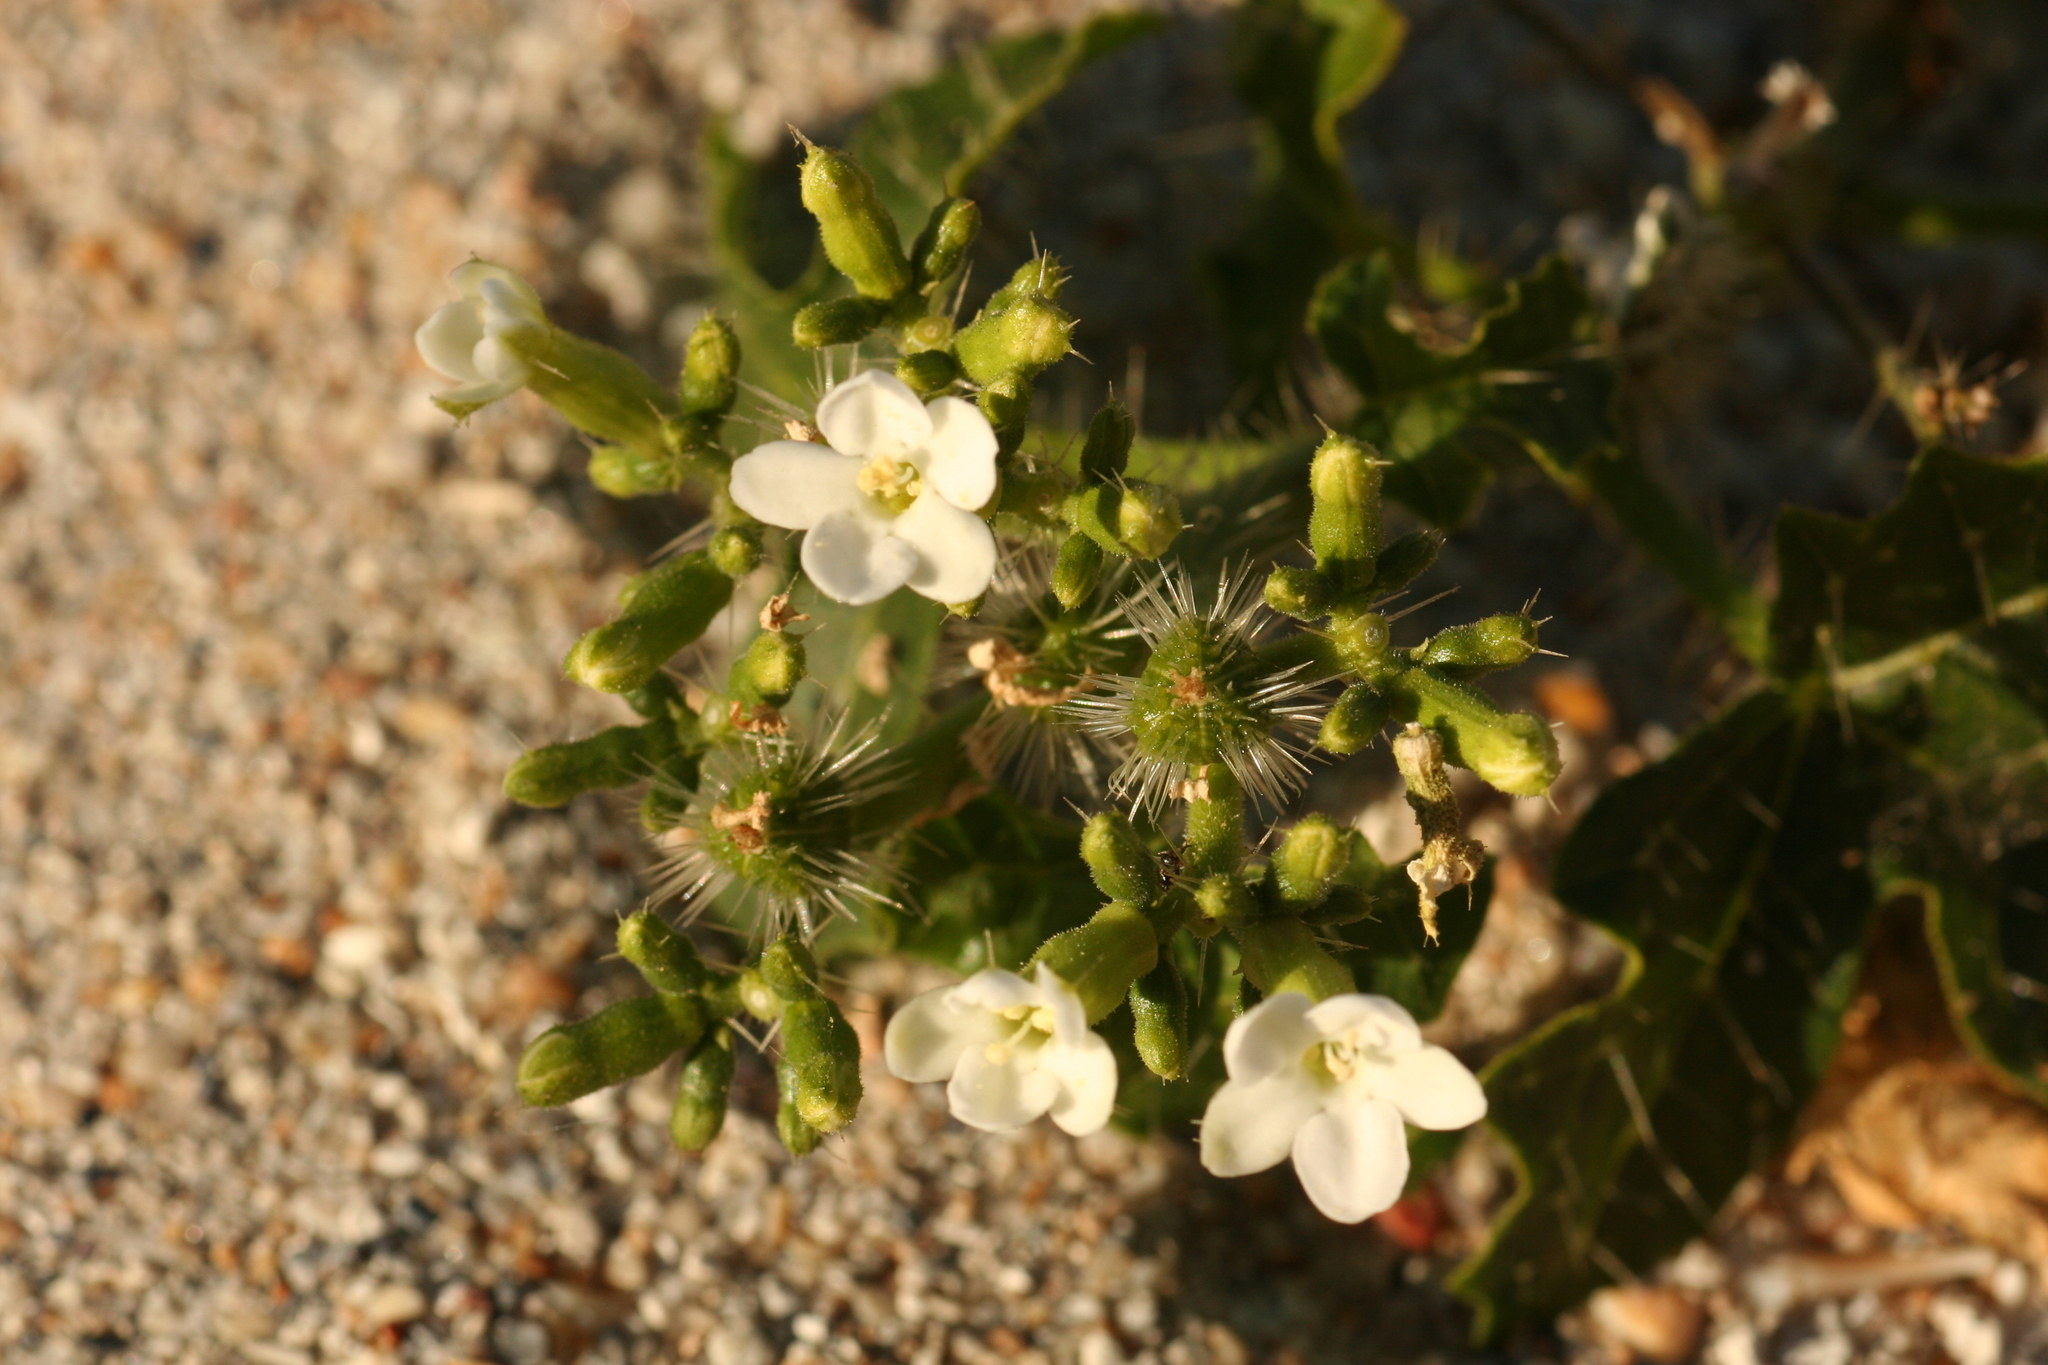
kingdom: Plantae
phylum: Tracheophyta
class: Magnoliopsida
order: Malpighiales
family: Euphorbiaceae
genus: Cnidoscolus
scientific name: Cnidoscolus stimulosus
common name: Bull-nettle
